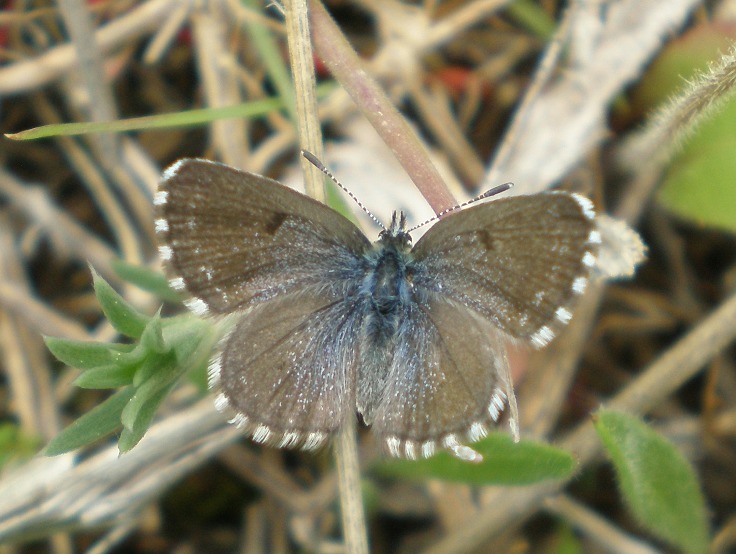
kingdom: Animalia
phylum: Arthropoda
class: Insecta
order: Lepidoptera
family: Lycaenidae
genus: Pseudophilotes
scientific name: Pseudophilotes baton
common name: Baton blue
